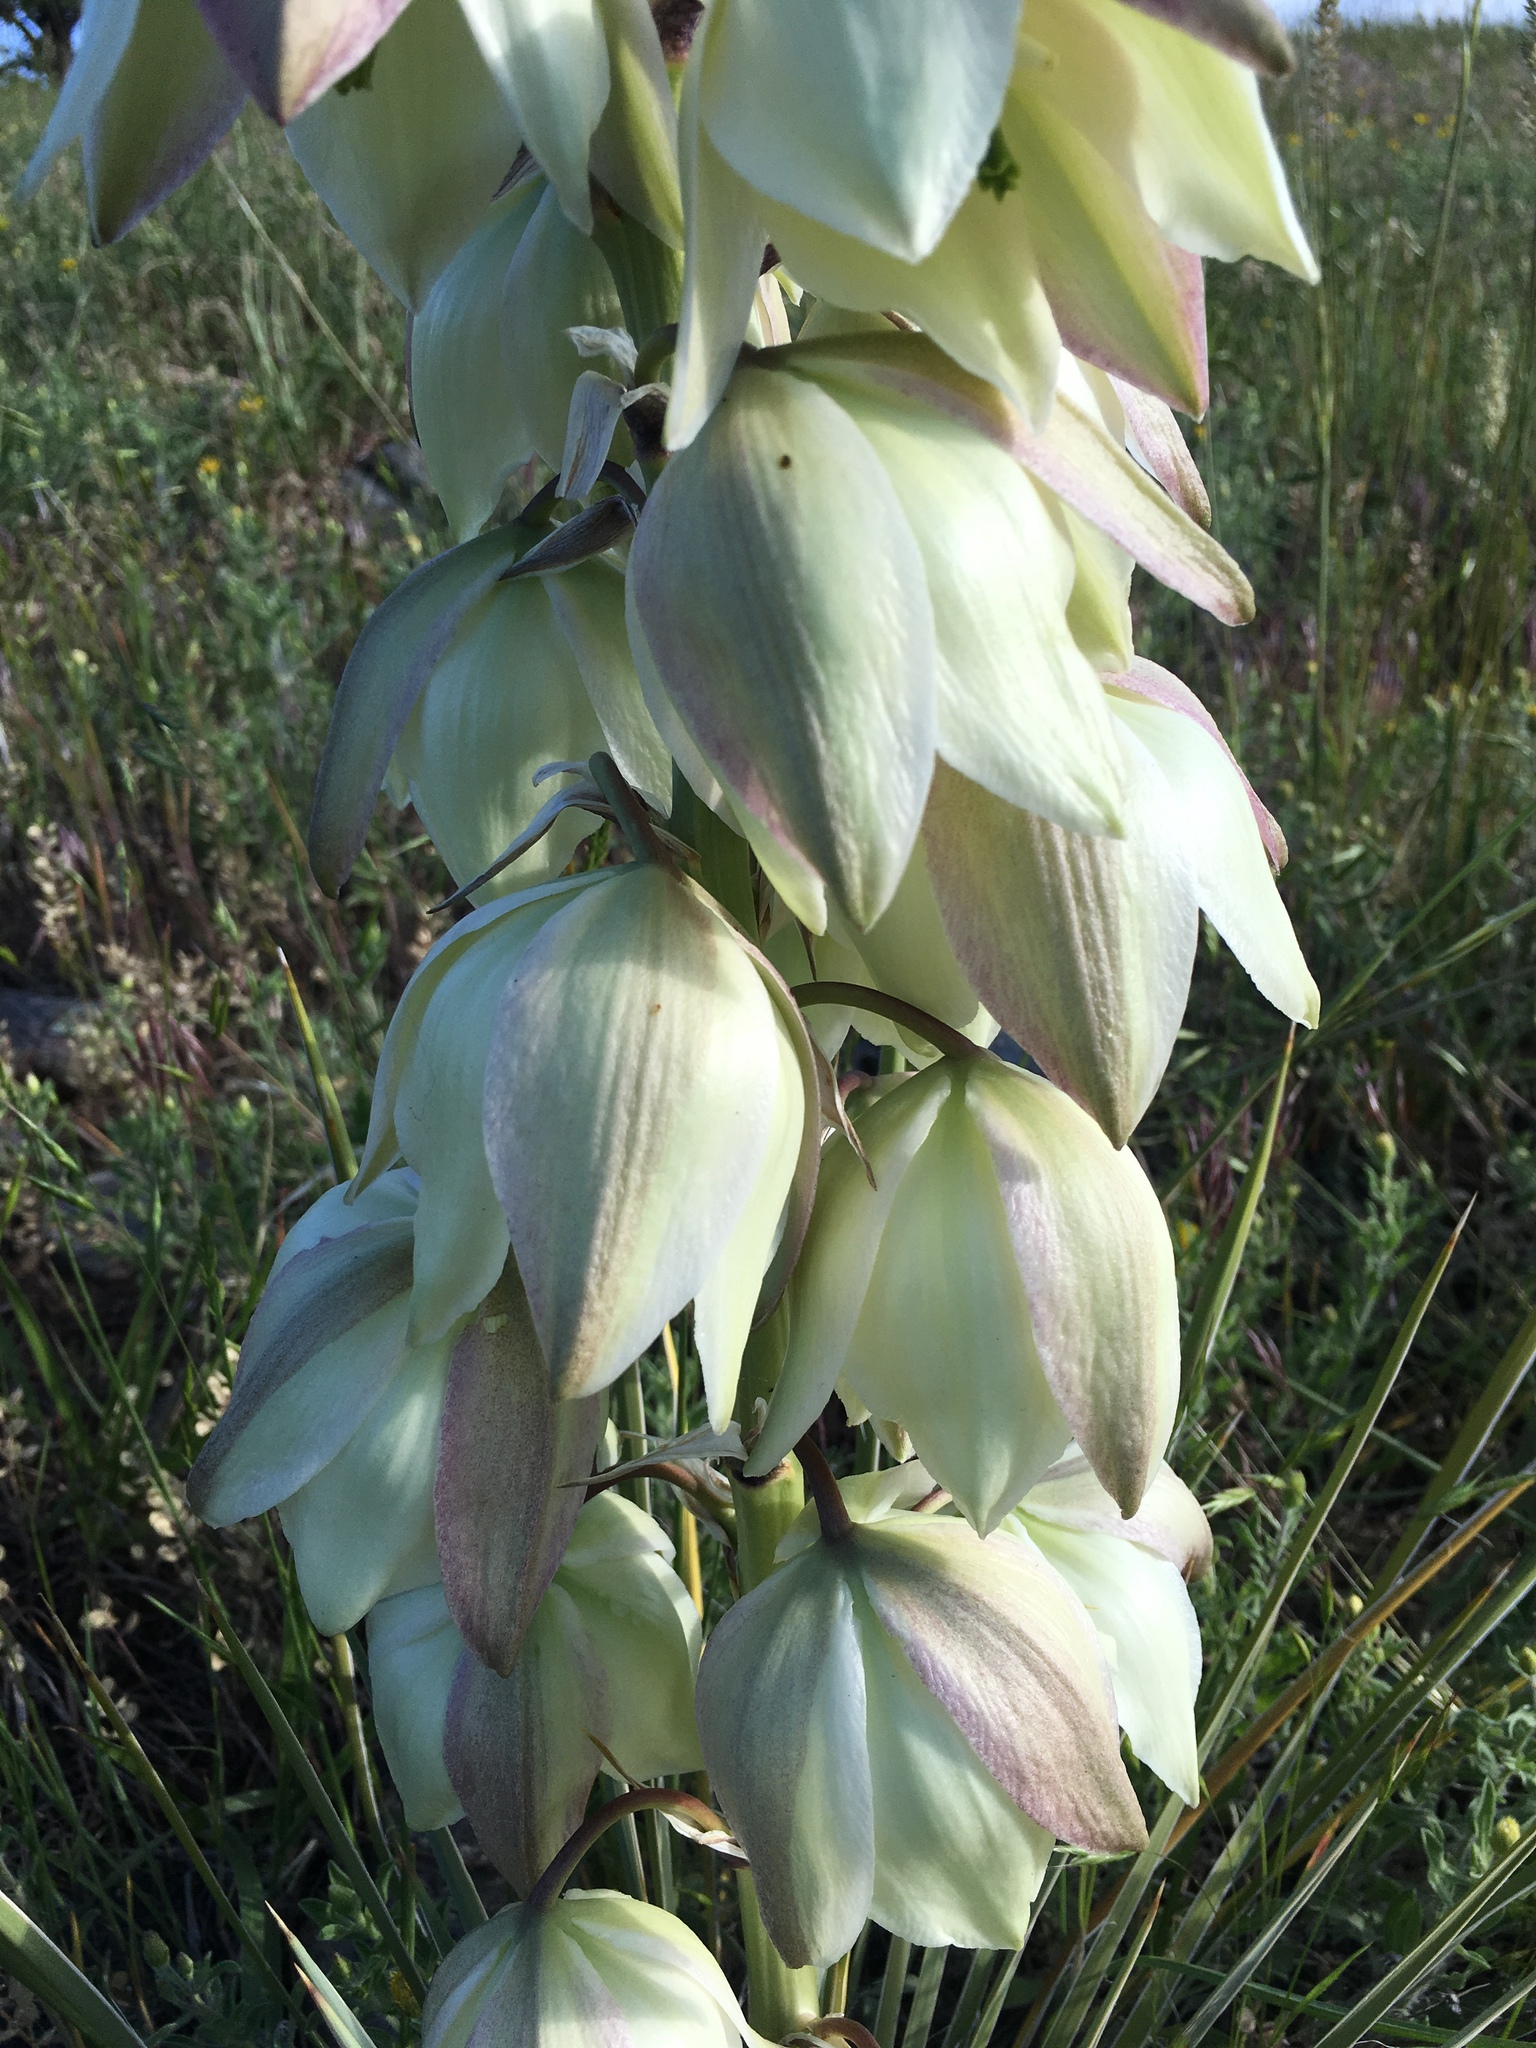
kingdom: Plantae
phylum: Tracheophyta
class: Liliopsida
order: Asparagales
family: Asparagaceae
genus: Yucca
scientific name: Yucca glauca
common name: Great plains yucca
